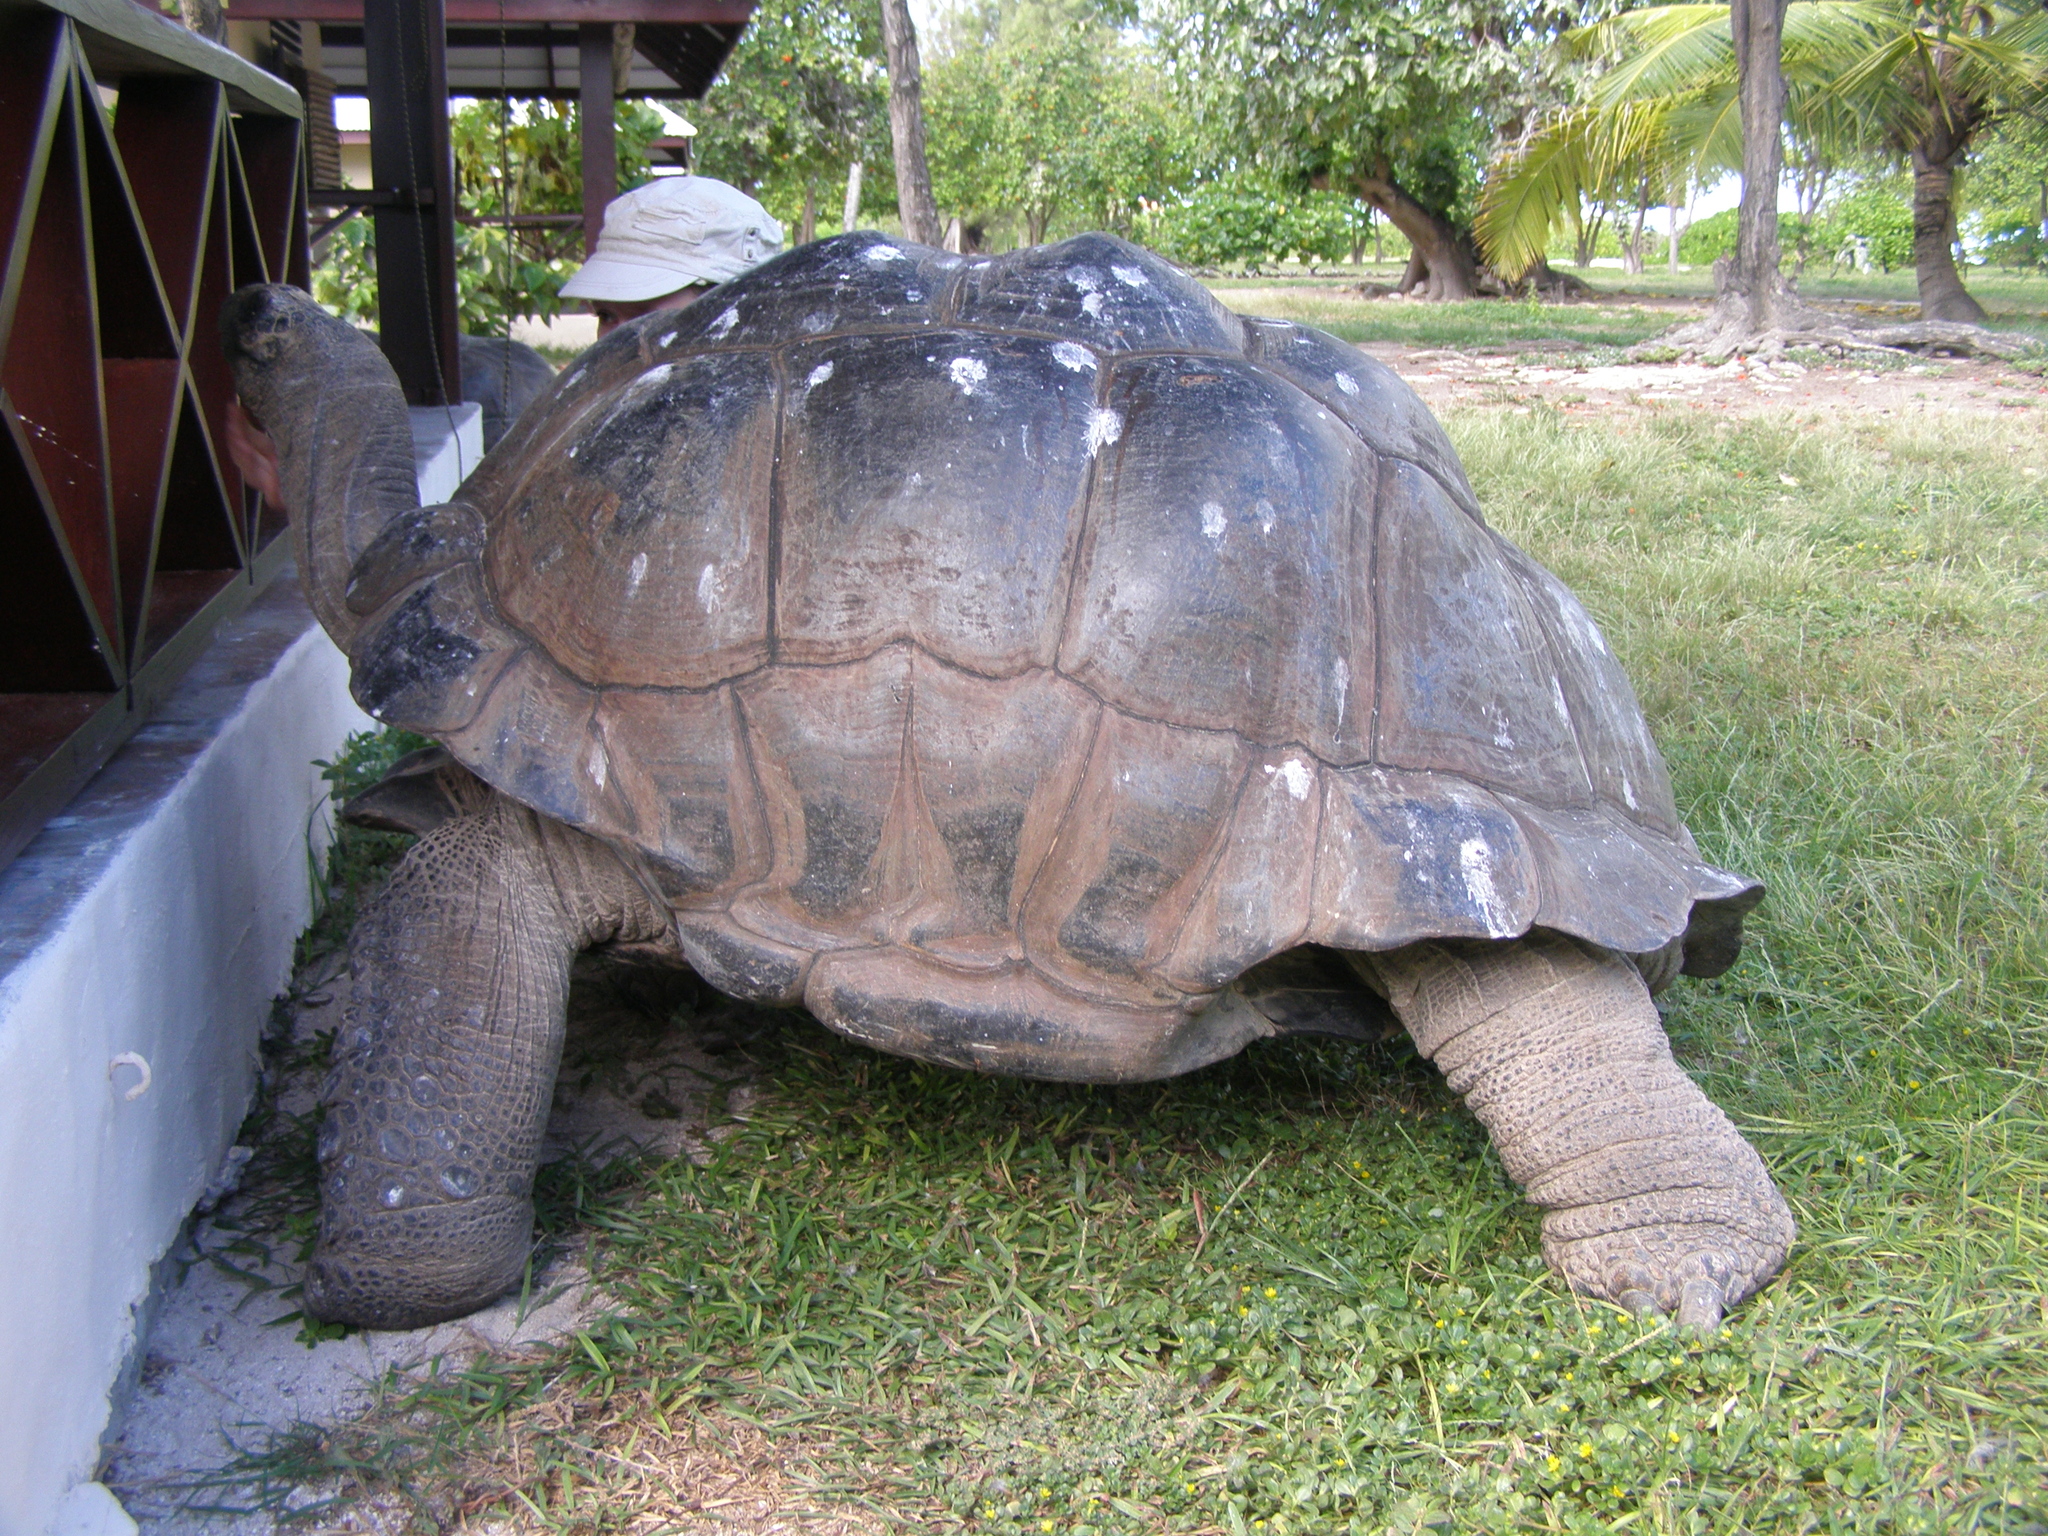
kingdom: Animalia
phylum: Chordata
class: Testudines
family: Testudinidae
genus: Aldabrachelys
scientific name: Aldabrachelys gigantea
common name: Aldabra giant tortoise
